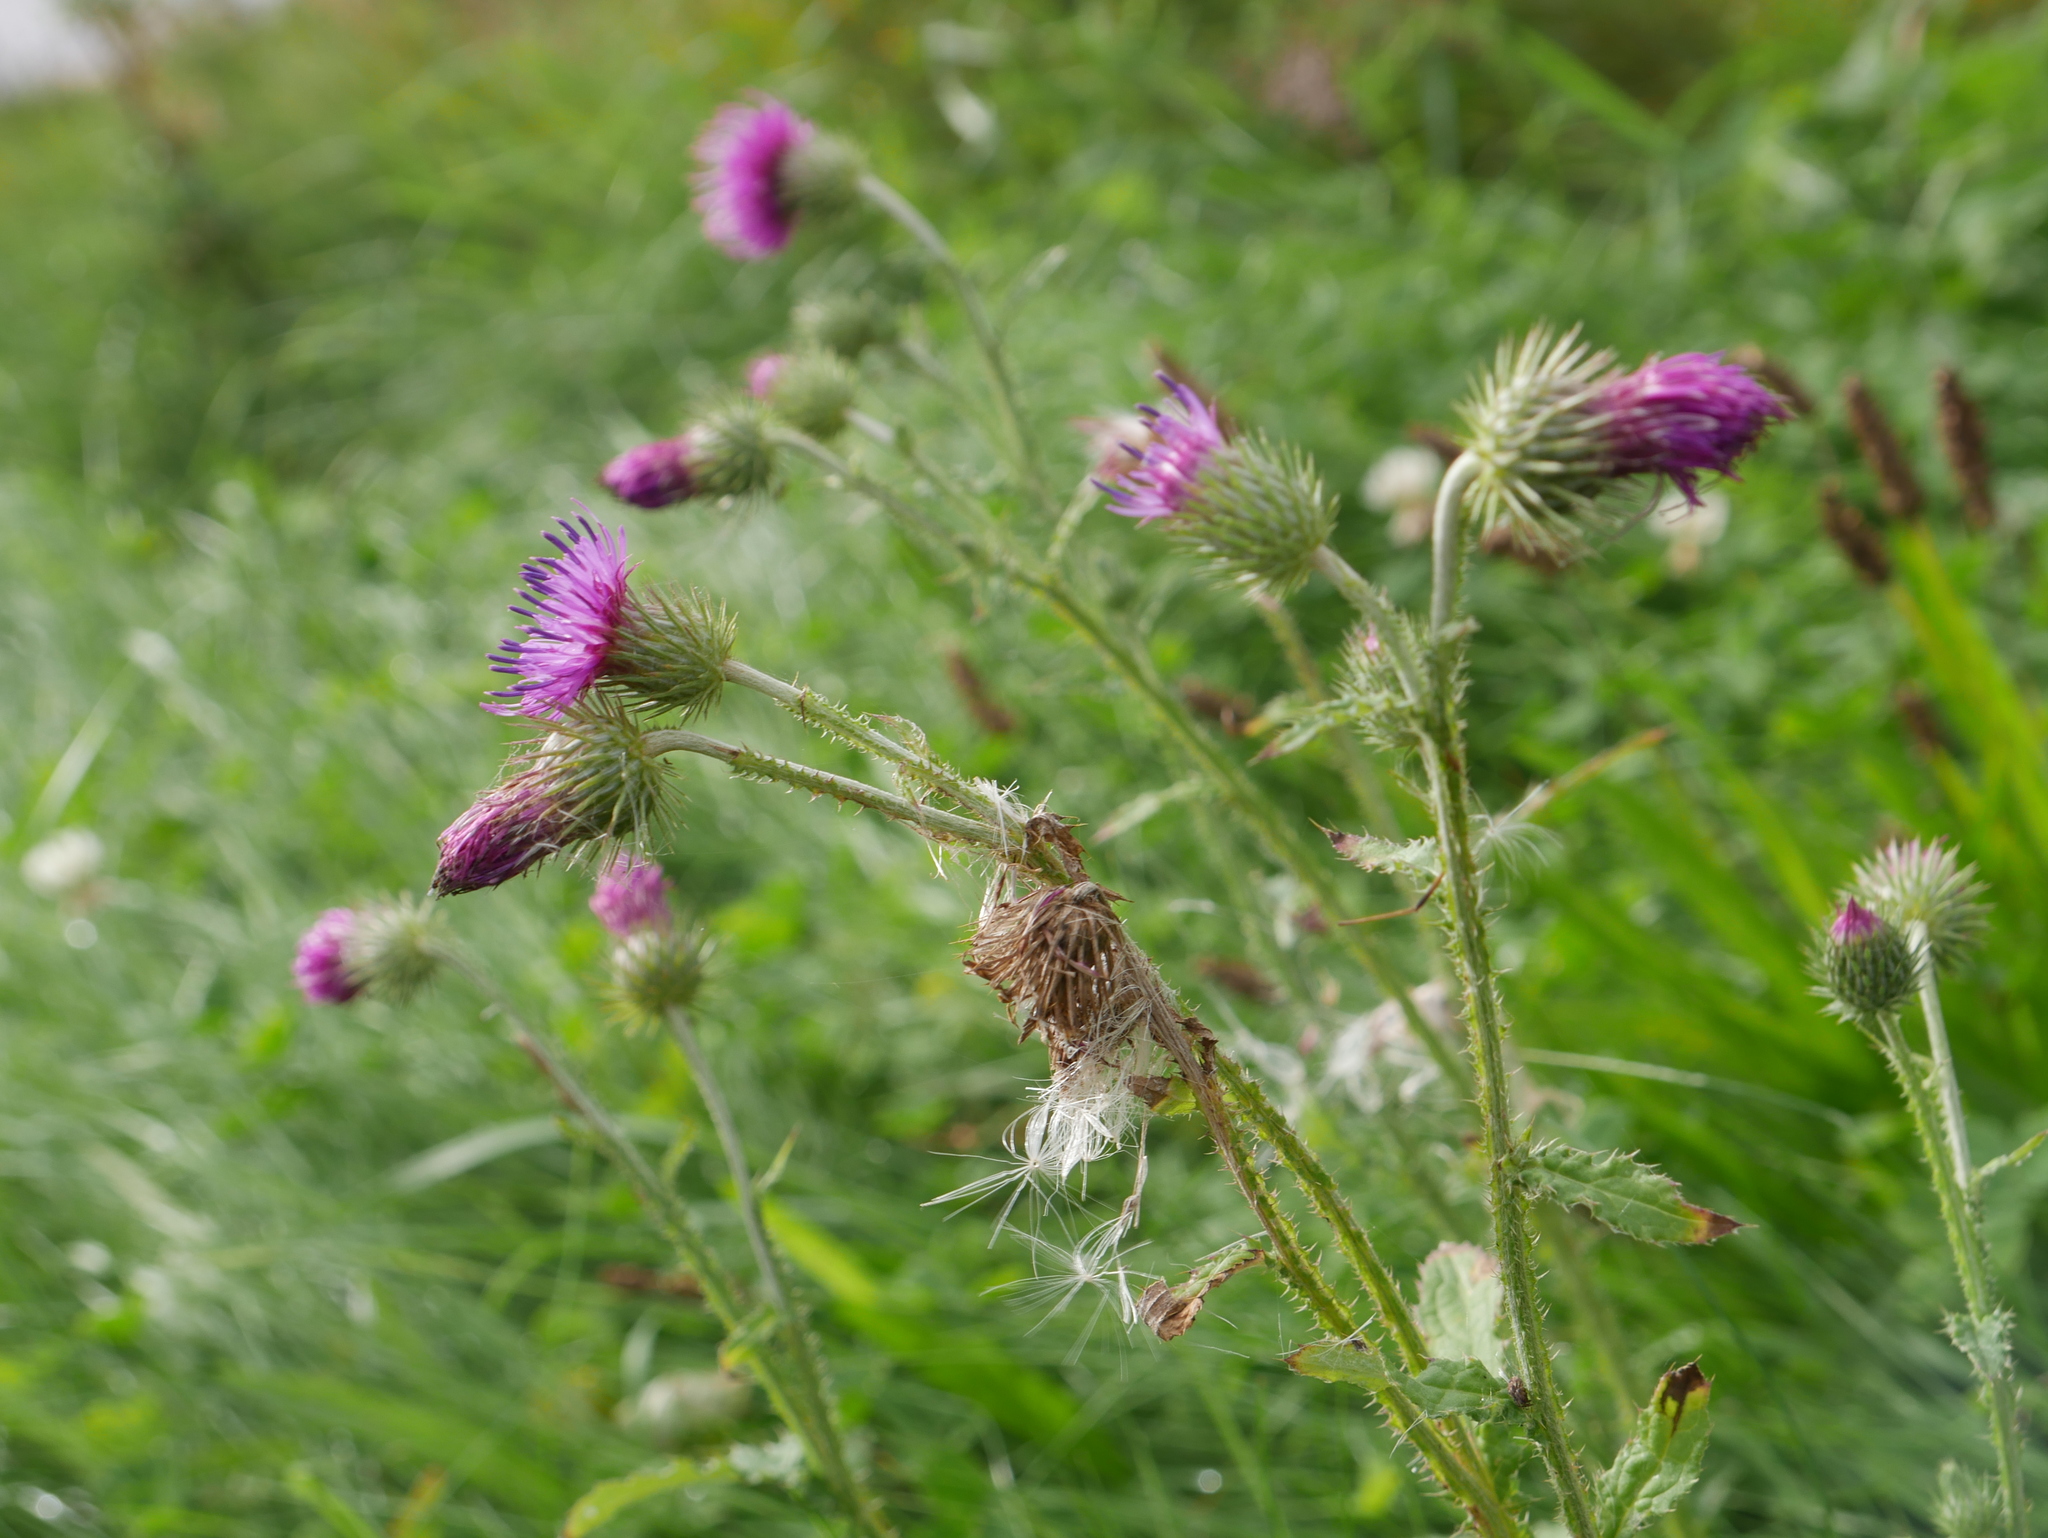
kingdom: Plantae
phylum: Tracheophyta
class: Magnoliopsida
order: Asterales
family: Asteraceae
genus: Carduus
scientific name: Carduus crispus
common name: Welted thistle
